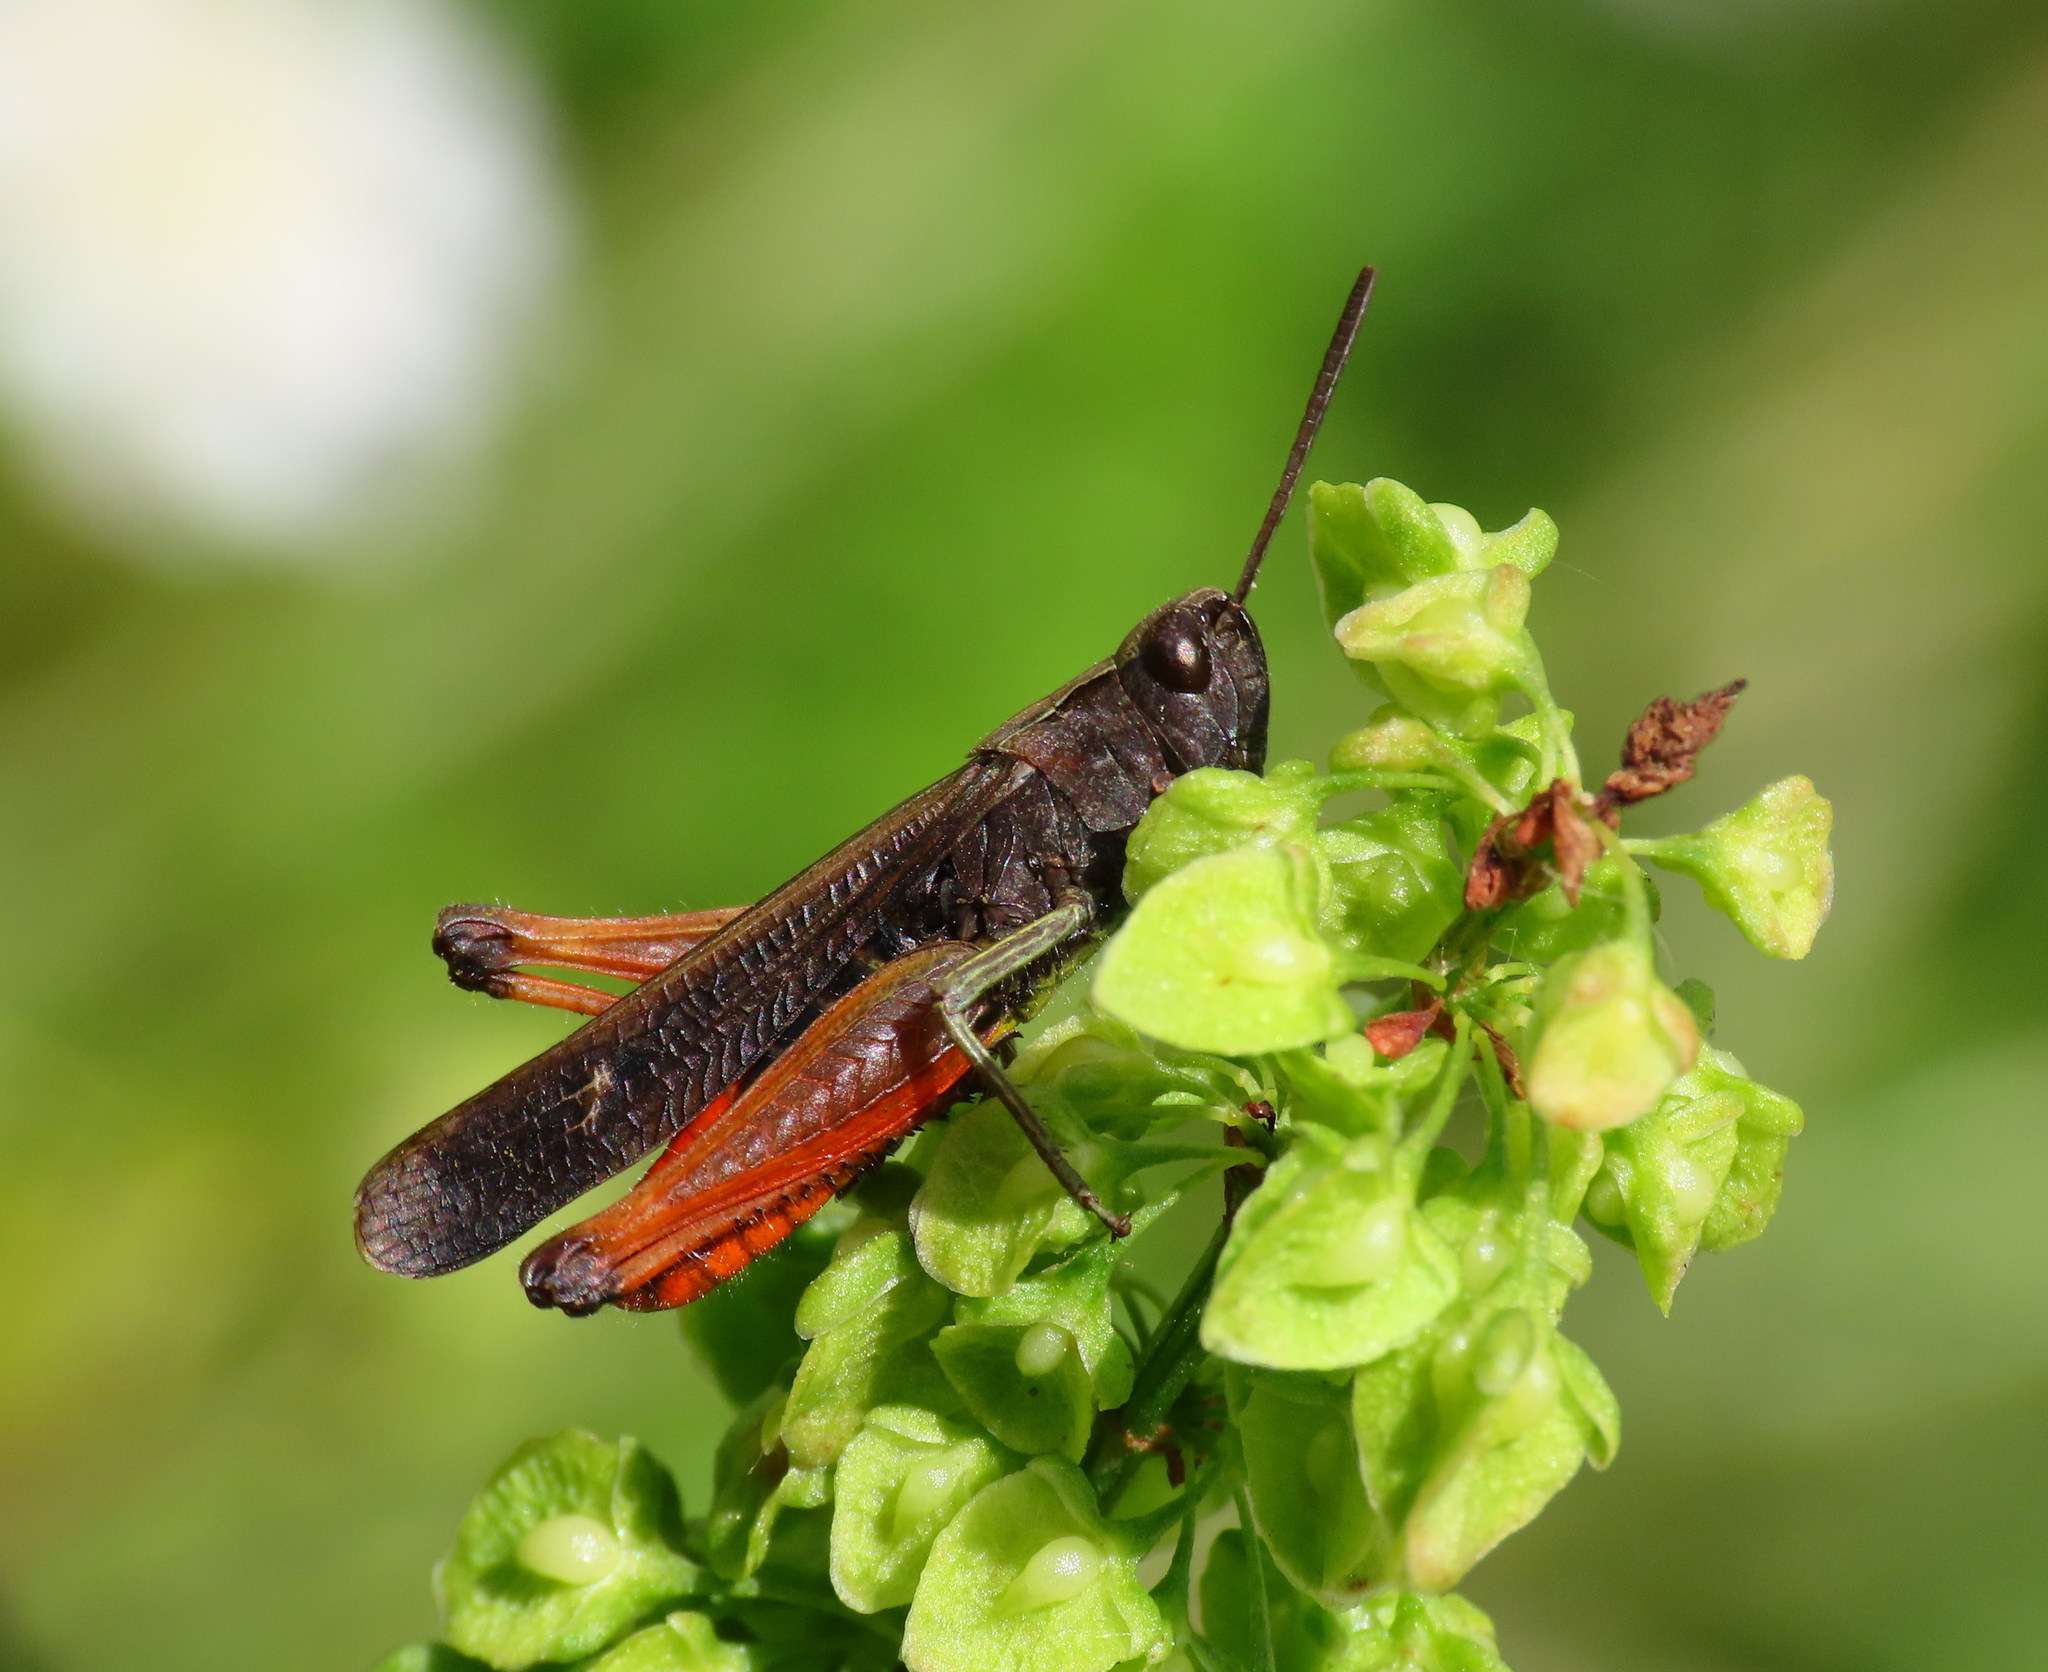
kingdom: Animalia
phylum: Arthropoda
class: Insecta
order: Orthoptera
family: Acrididae
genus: Omocestus
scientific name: Omocestus rufipes
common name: Woodland grasshopper
